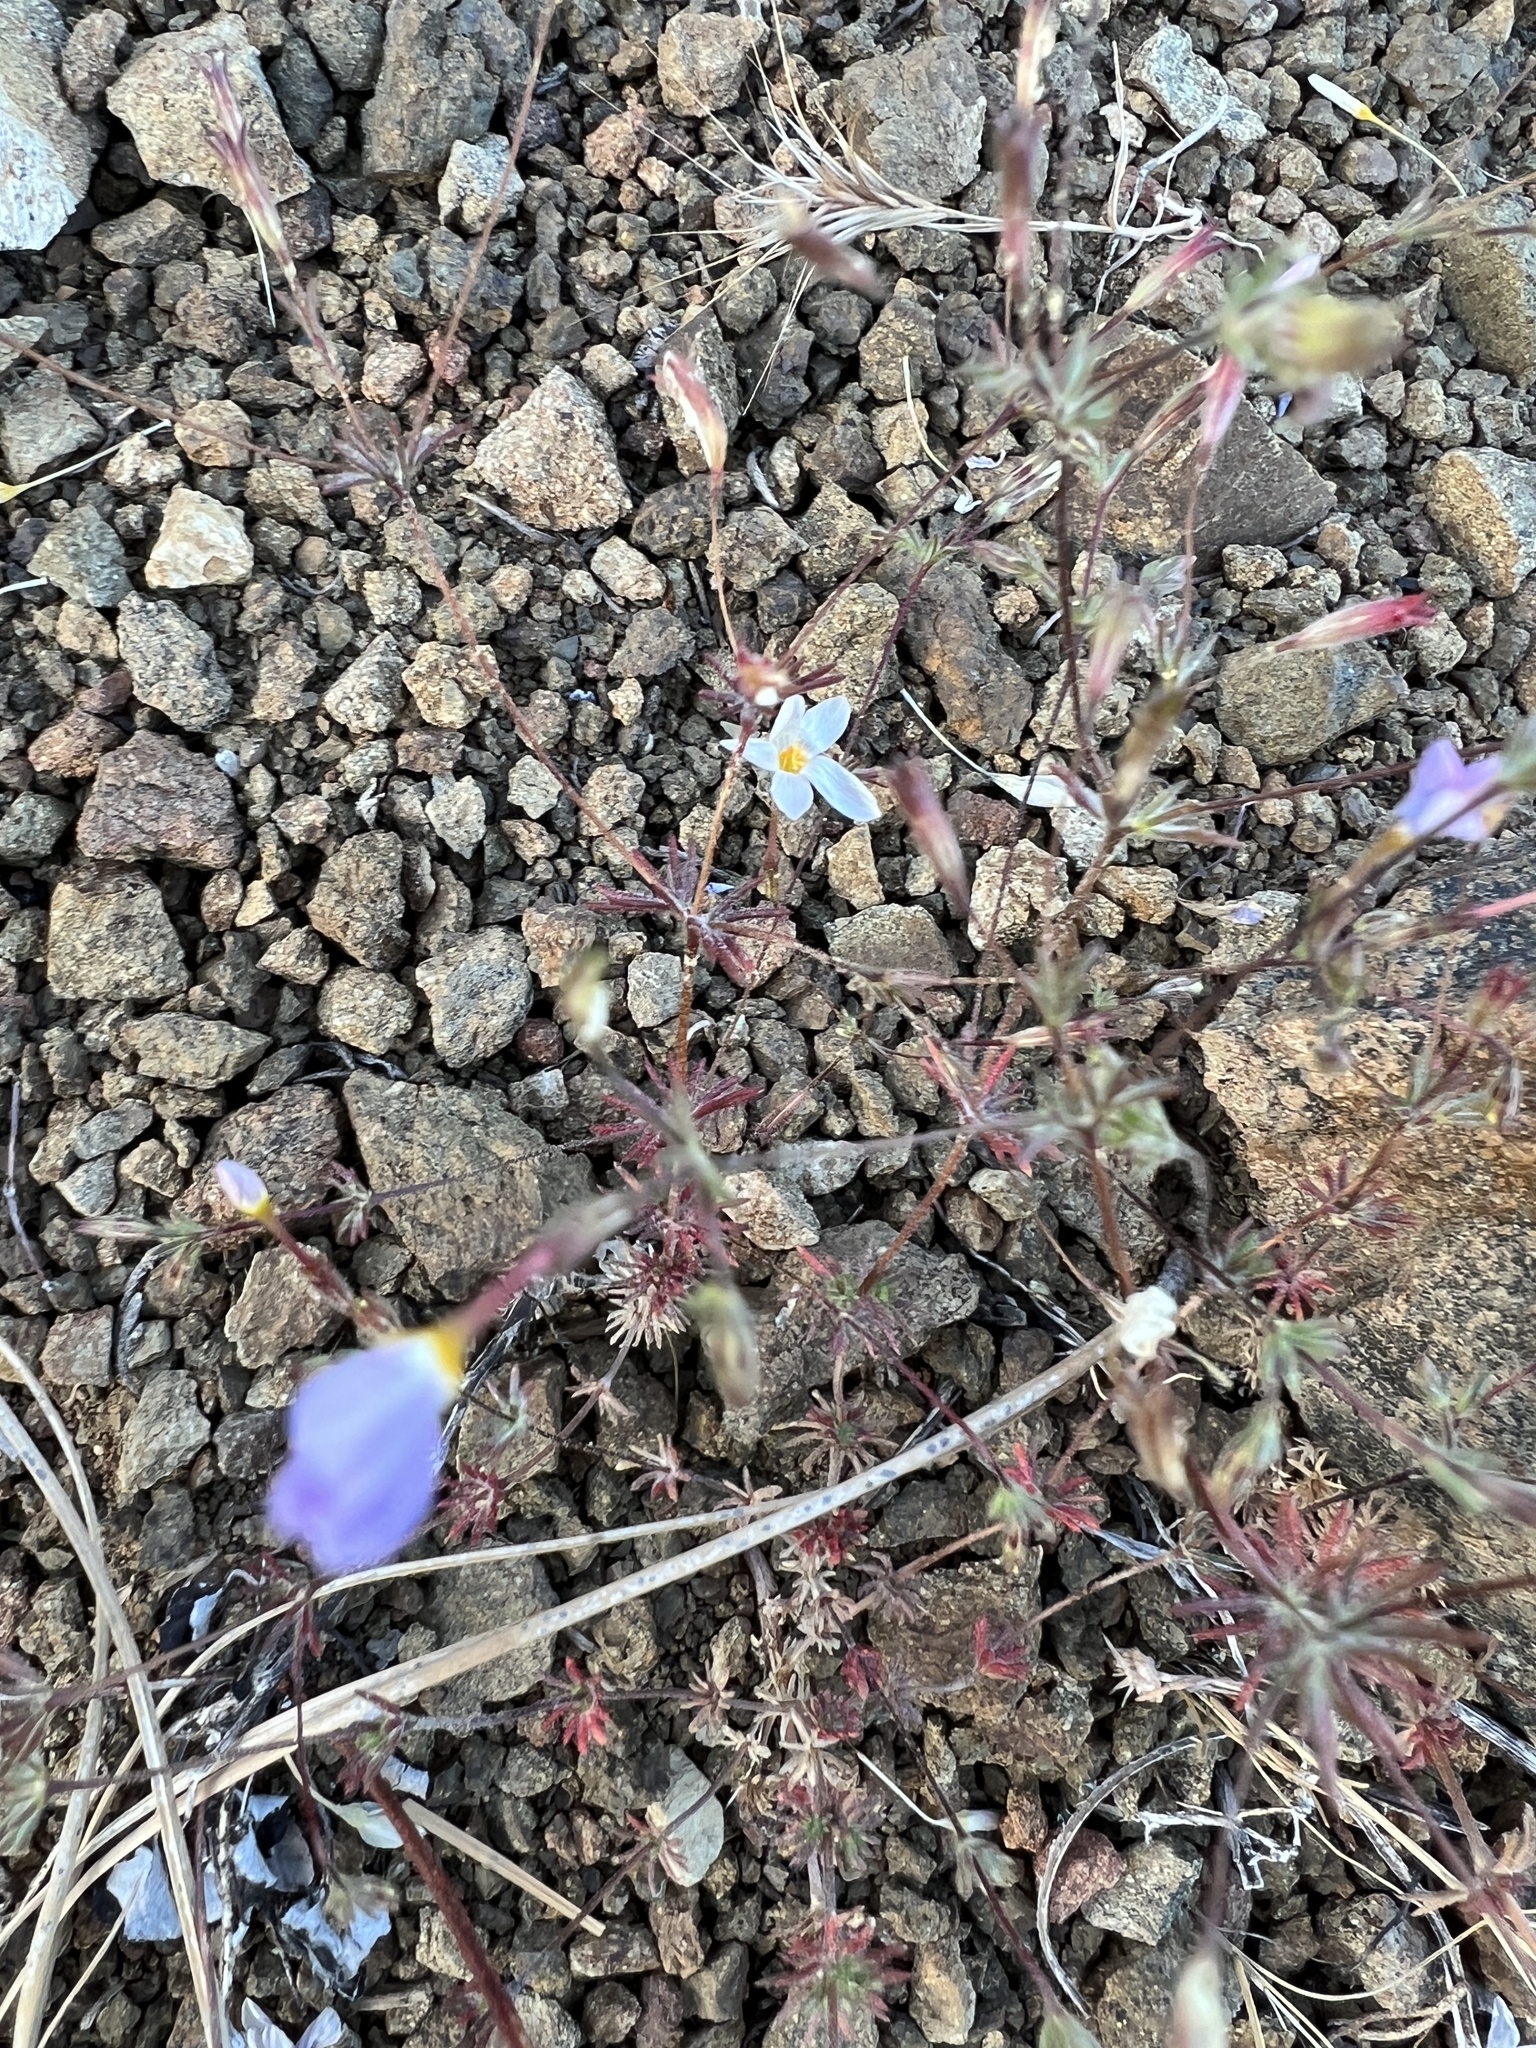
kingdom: Plantae
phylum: Tracheophyta
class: Magnoliopsida
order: Ericales
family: Polemoniaceae
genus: Leptosiphon
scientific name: Leptosiphon ambiguus
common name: Serpentine linanthus
